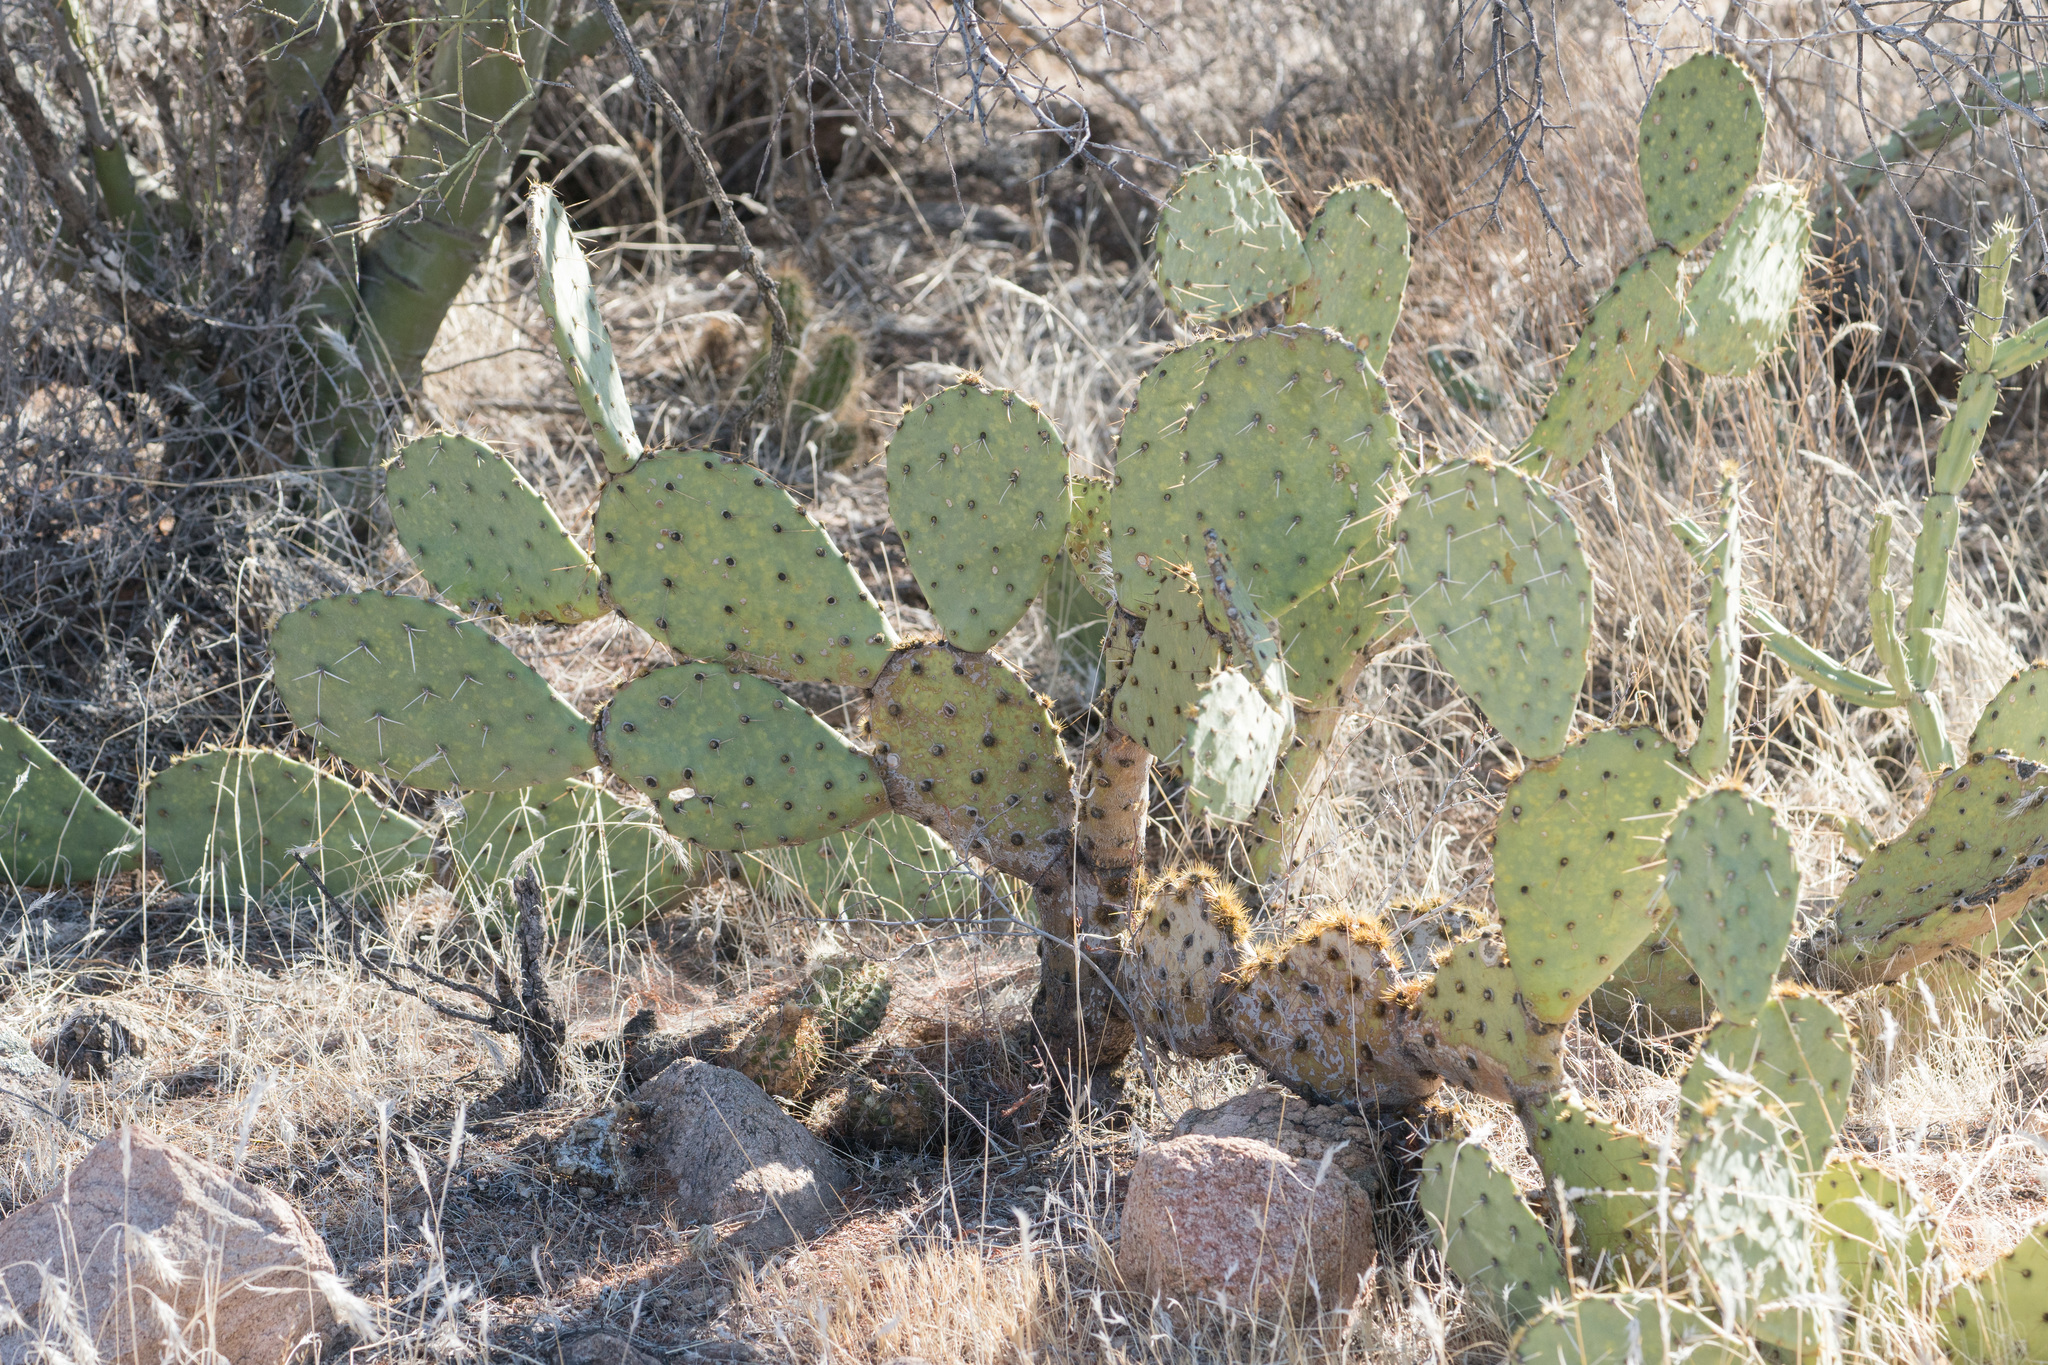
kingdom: Plantae
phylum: Tracheophyta
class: Magnoliopsida
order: Caryophyllales
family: Cactaceae
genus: Opuntia
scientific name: Opuntia engelmannii
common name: Cactus-apple
